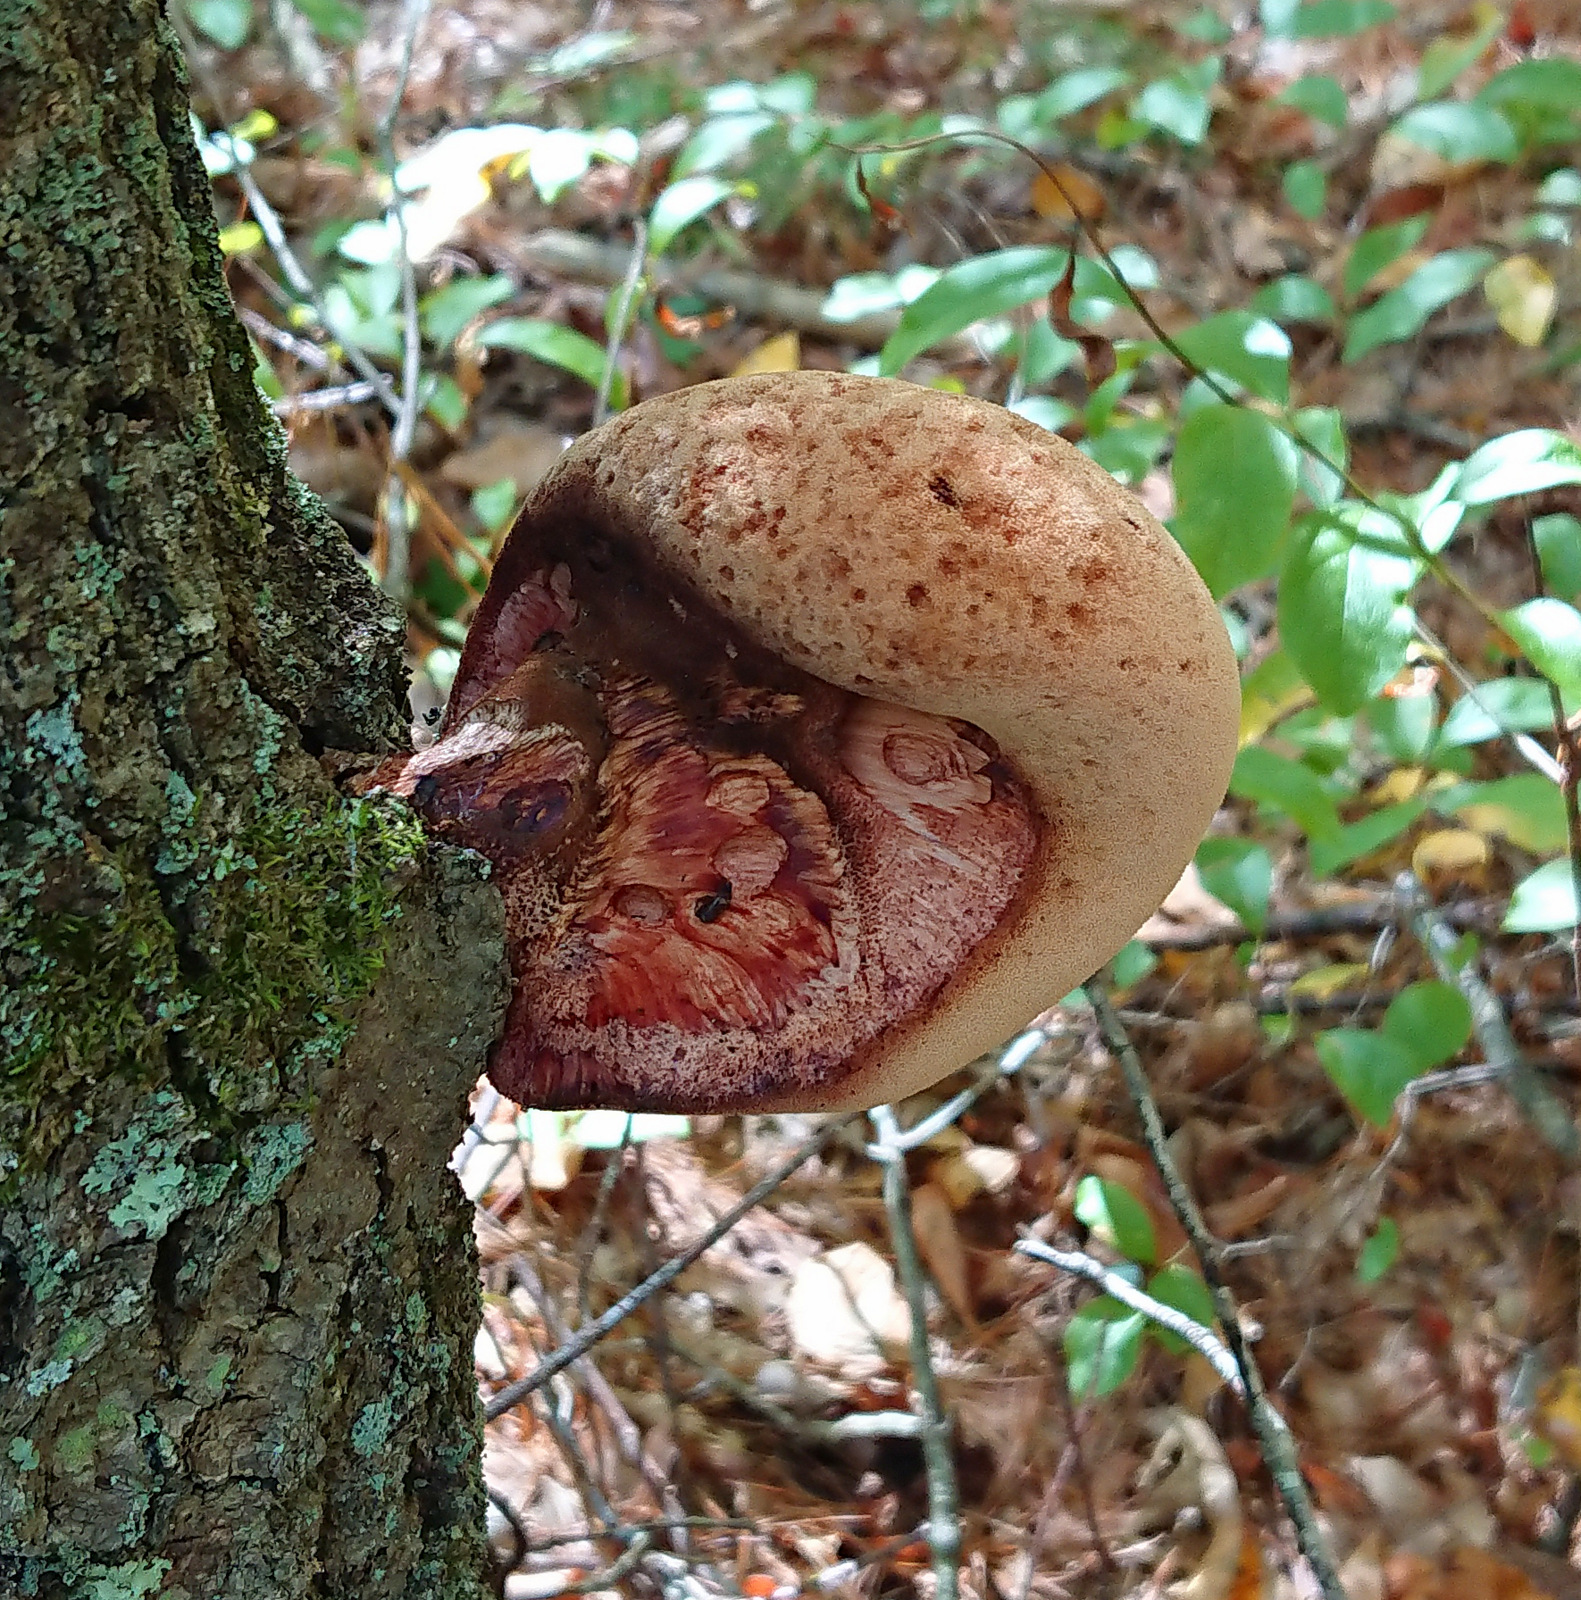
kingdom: Fungi
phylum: Basidiomycota
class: Agaricomycetes
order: Agaricales
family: Fistulinaceae
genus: Fistulina
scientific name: Fistulina hepatica
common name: Beef-steak fungus
